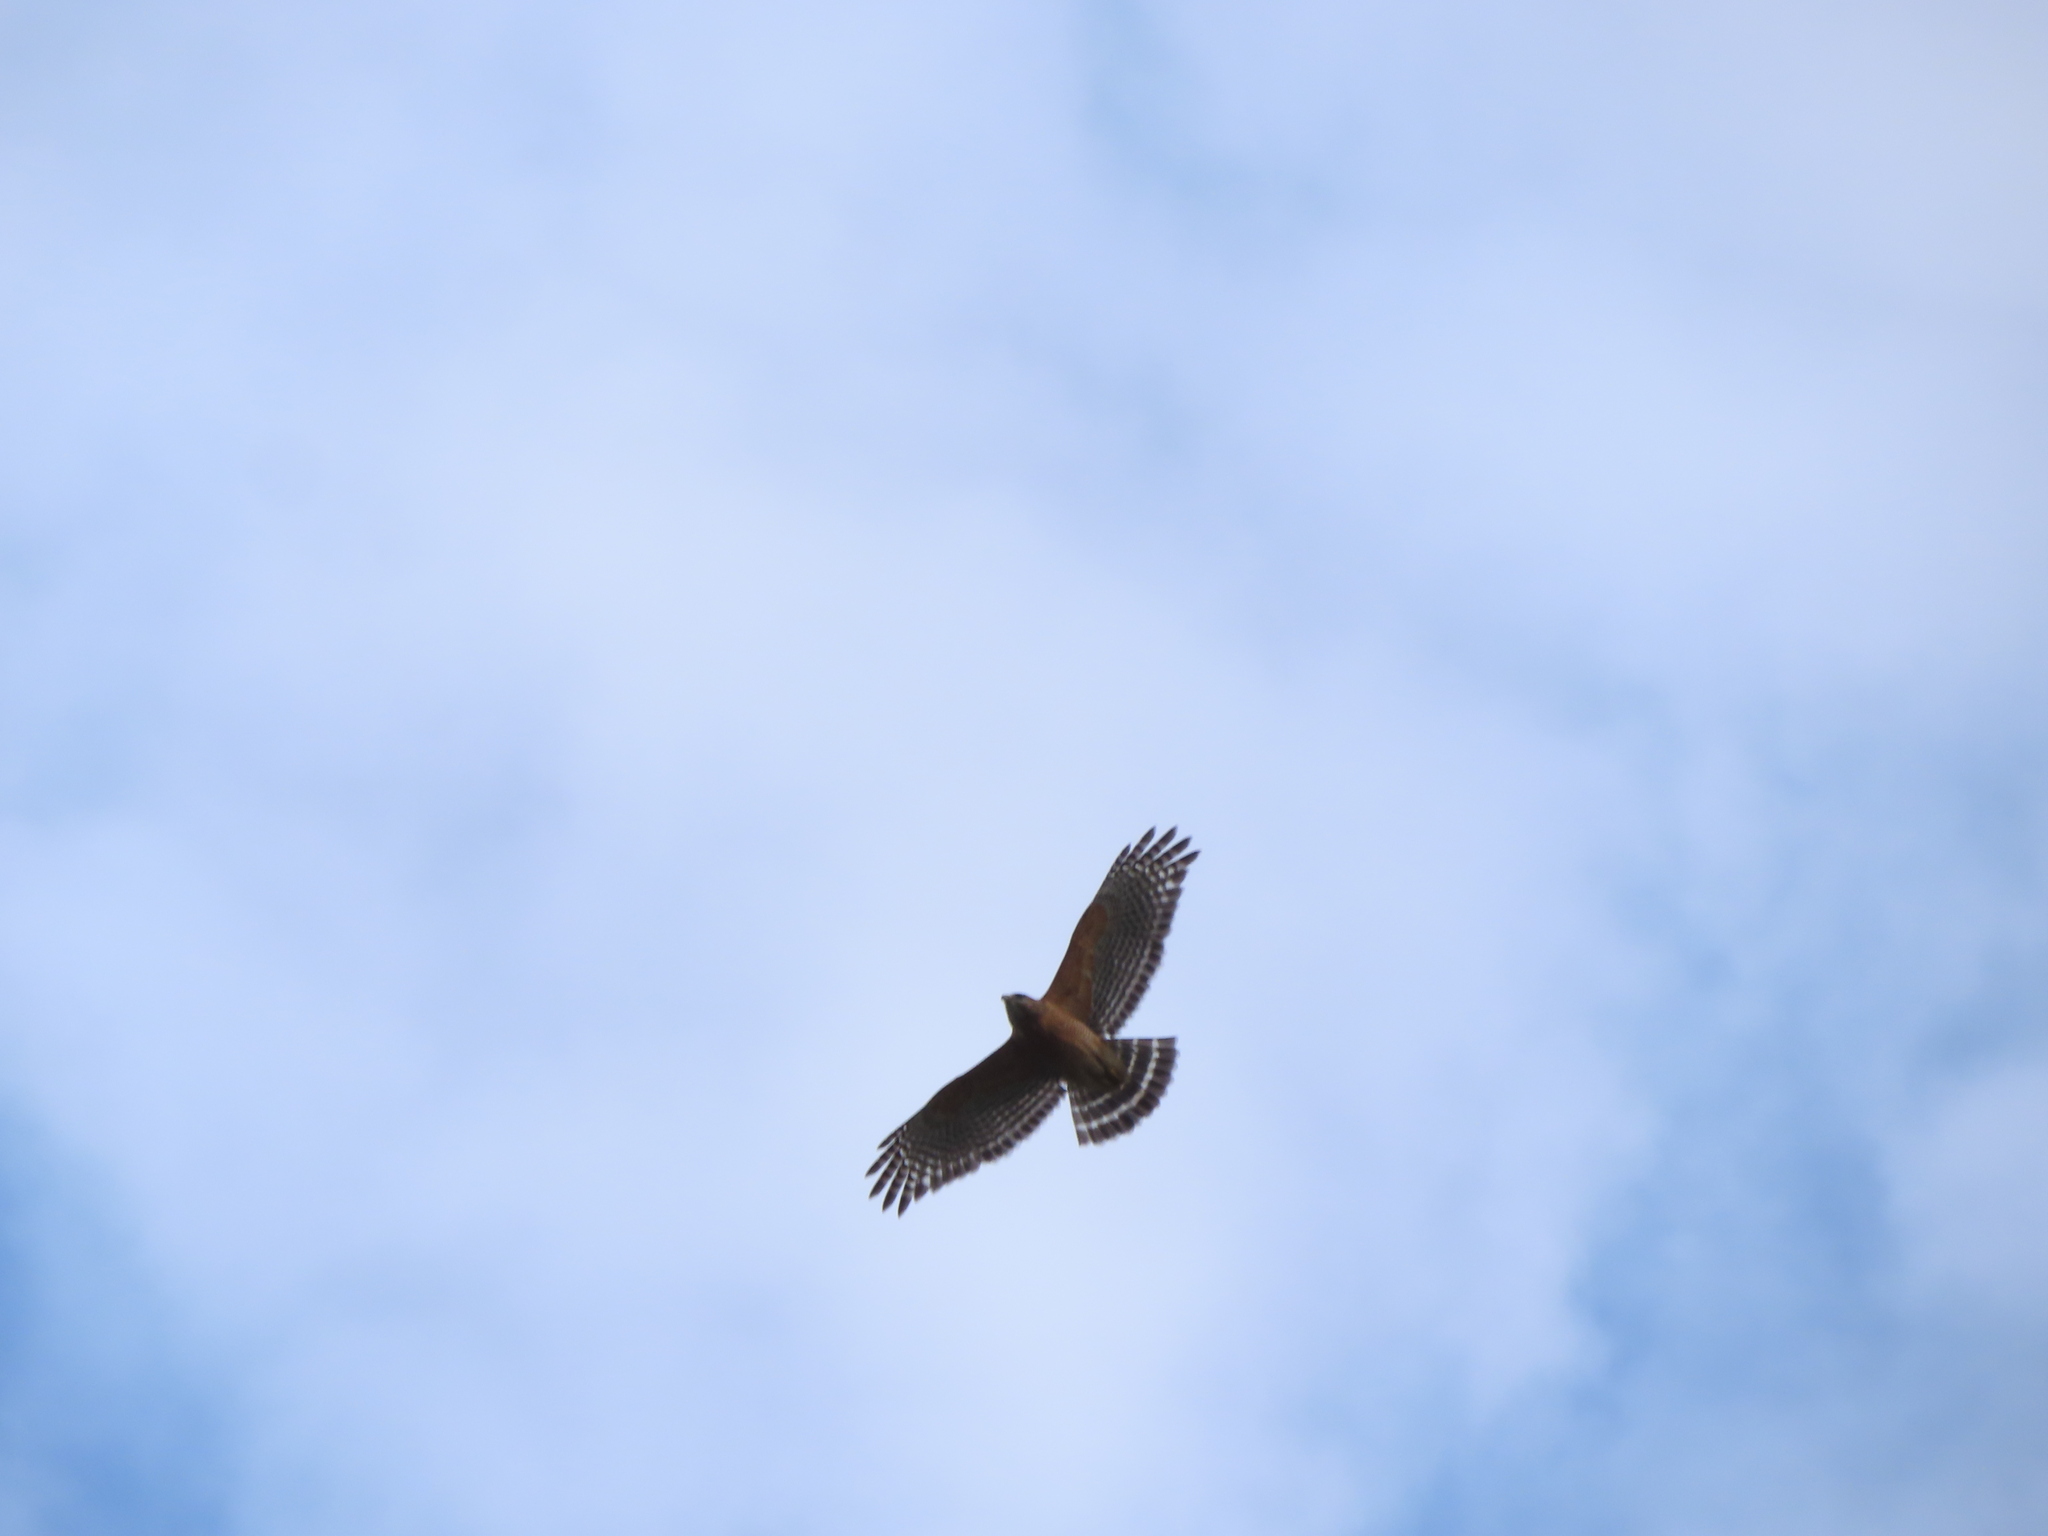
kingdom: Animalia
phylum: Chordata
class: Aves
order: Accipitriformes
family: Accipitridae
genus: Buteo
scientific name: Buteo lineatus
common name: Red-shouldered hawk
